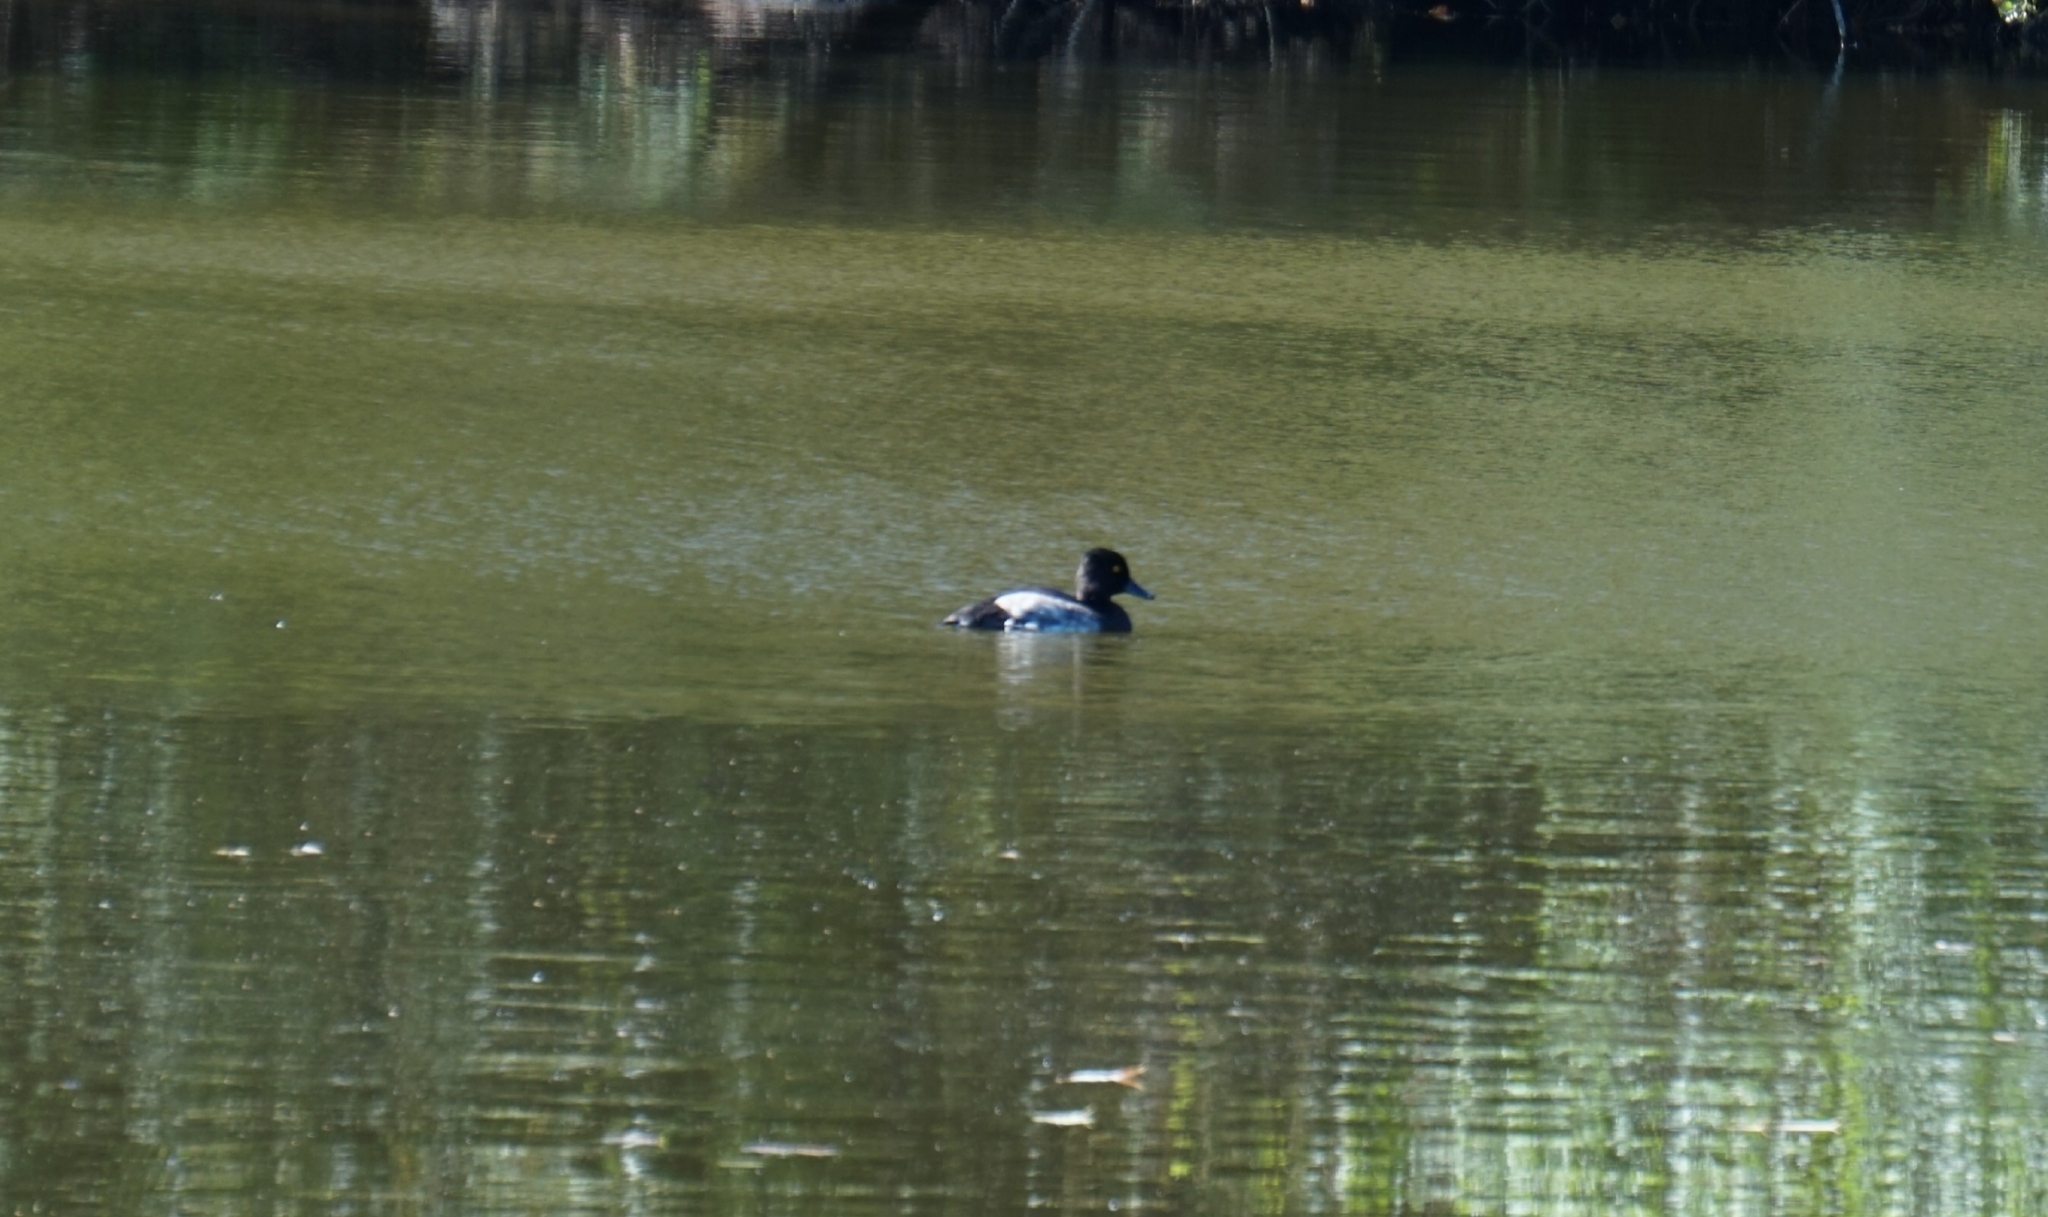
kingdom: Animalia
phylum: Chordata
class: Aves
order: Anseriformes
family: Anatidae
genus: Aythya
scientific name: Aythya fuligula
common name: Tufted duck
